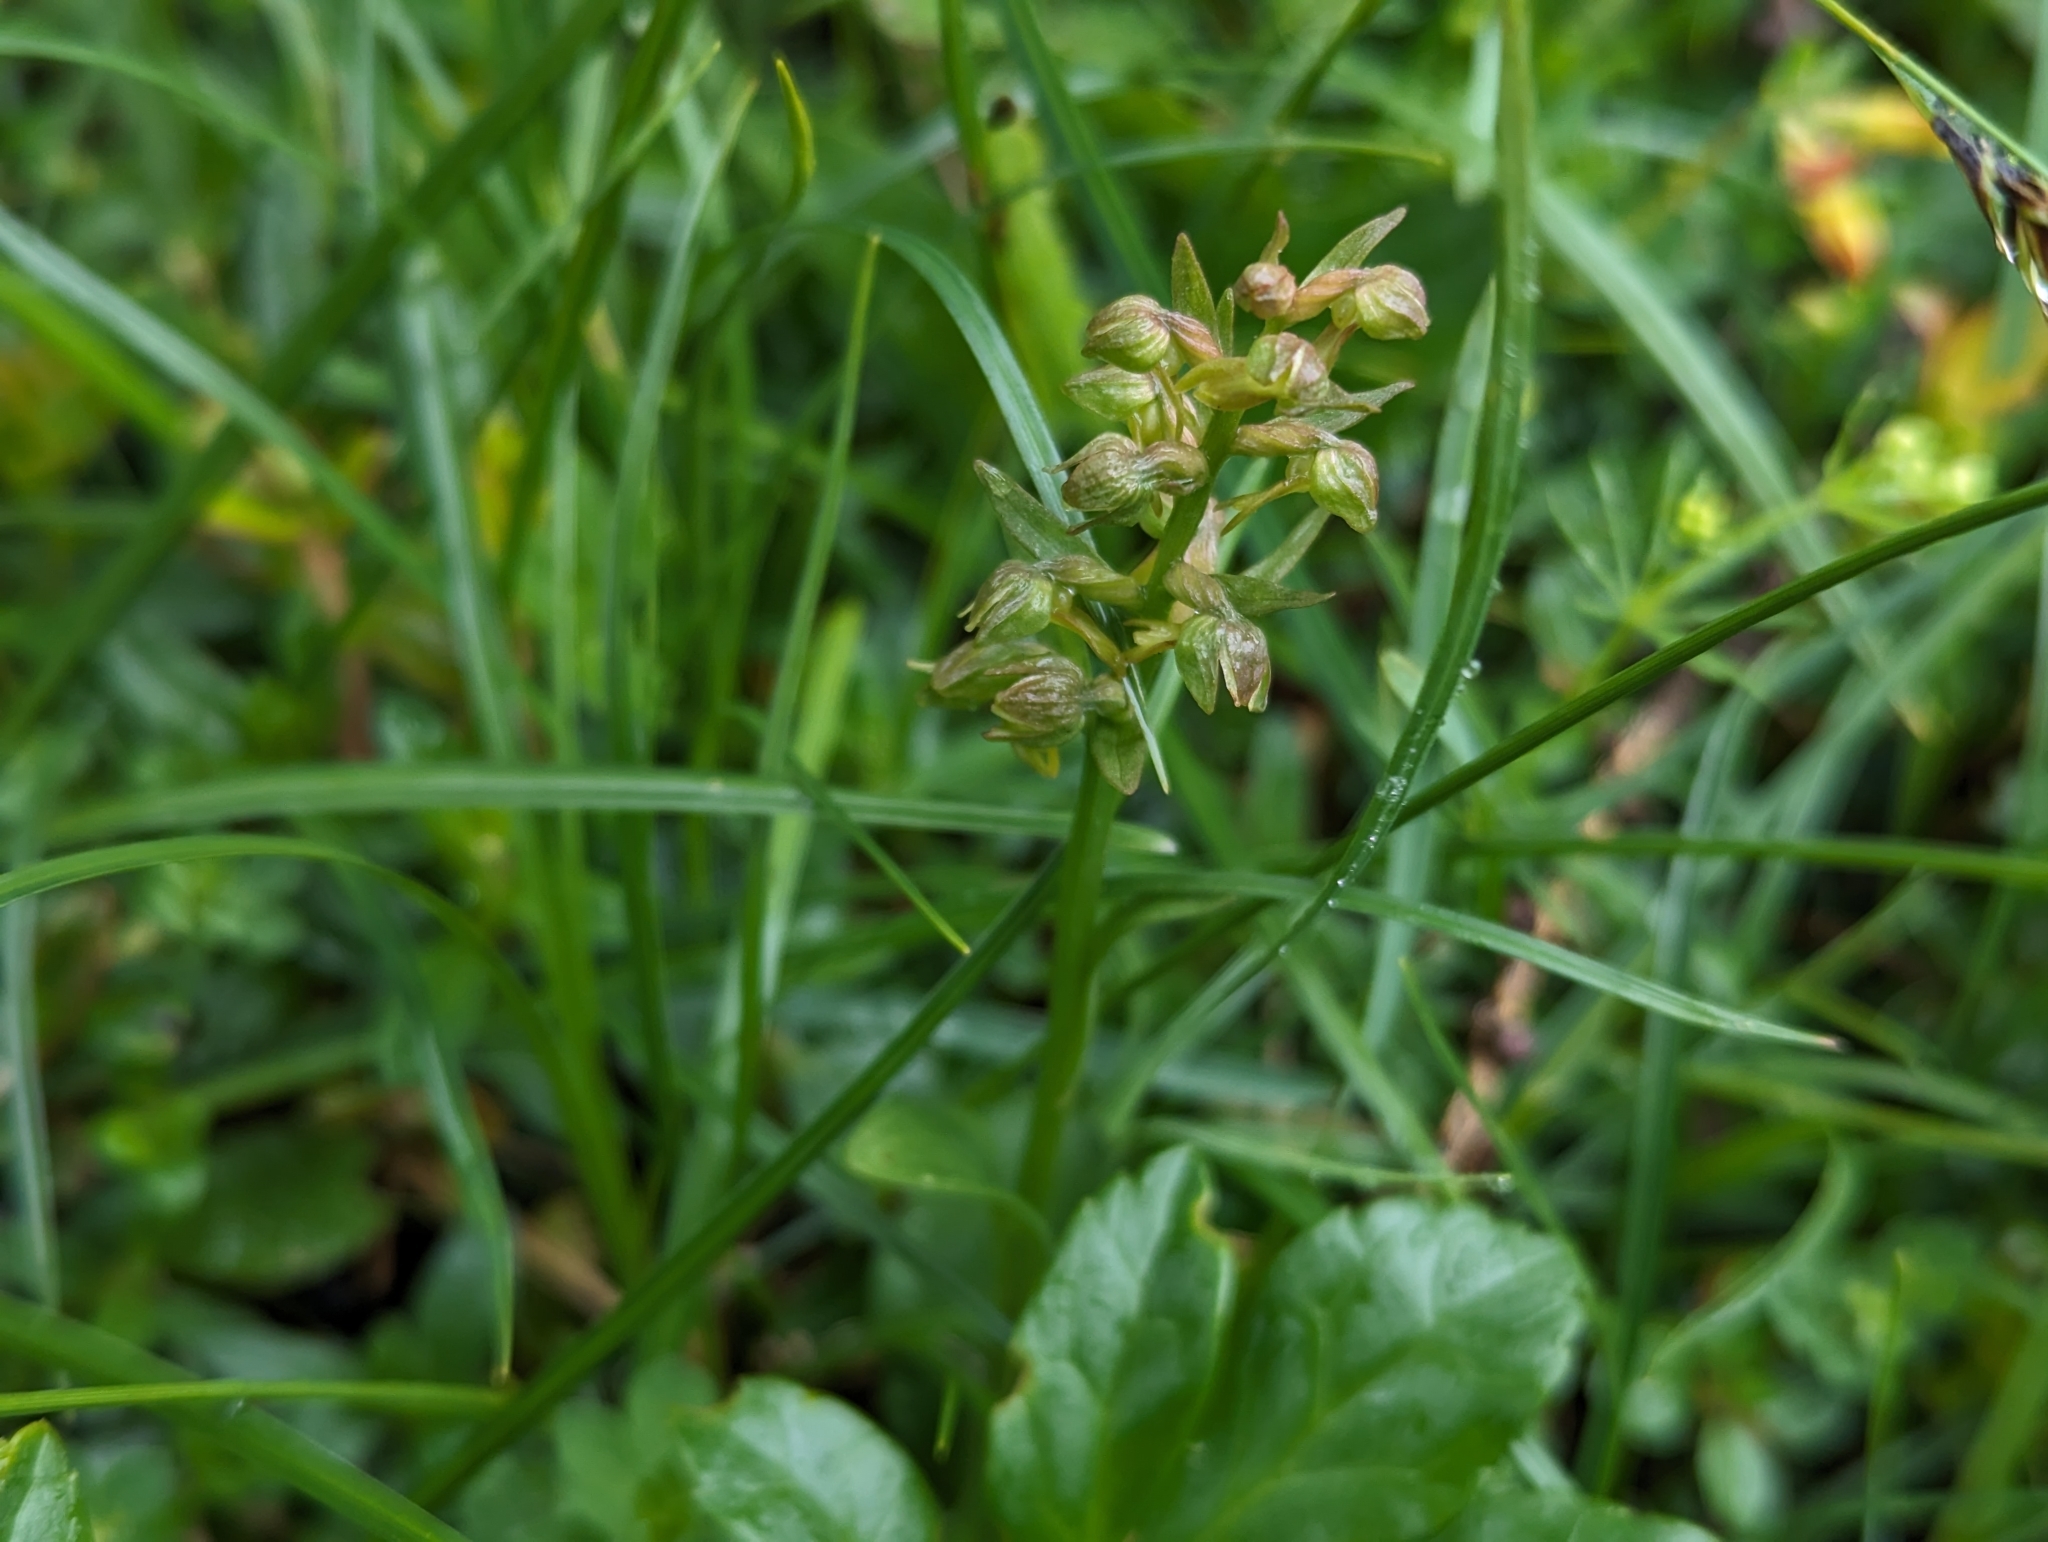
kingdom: Plantae
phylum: Tracheophyta
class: Liliopsida
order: Asparagales
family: Orchidaceae
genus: Dactylorhiza
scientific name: Dactylorhiza viridis
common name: Longbract frog orchid
